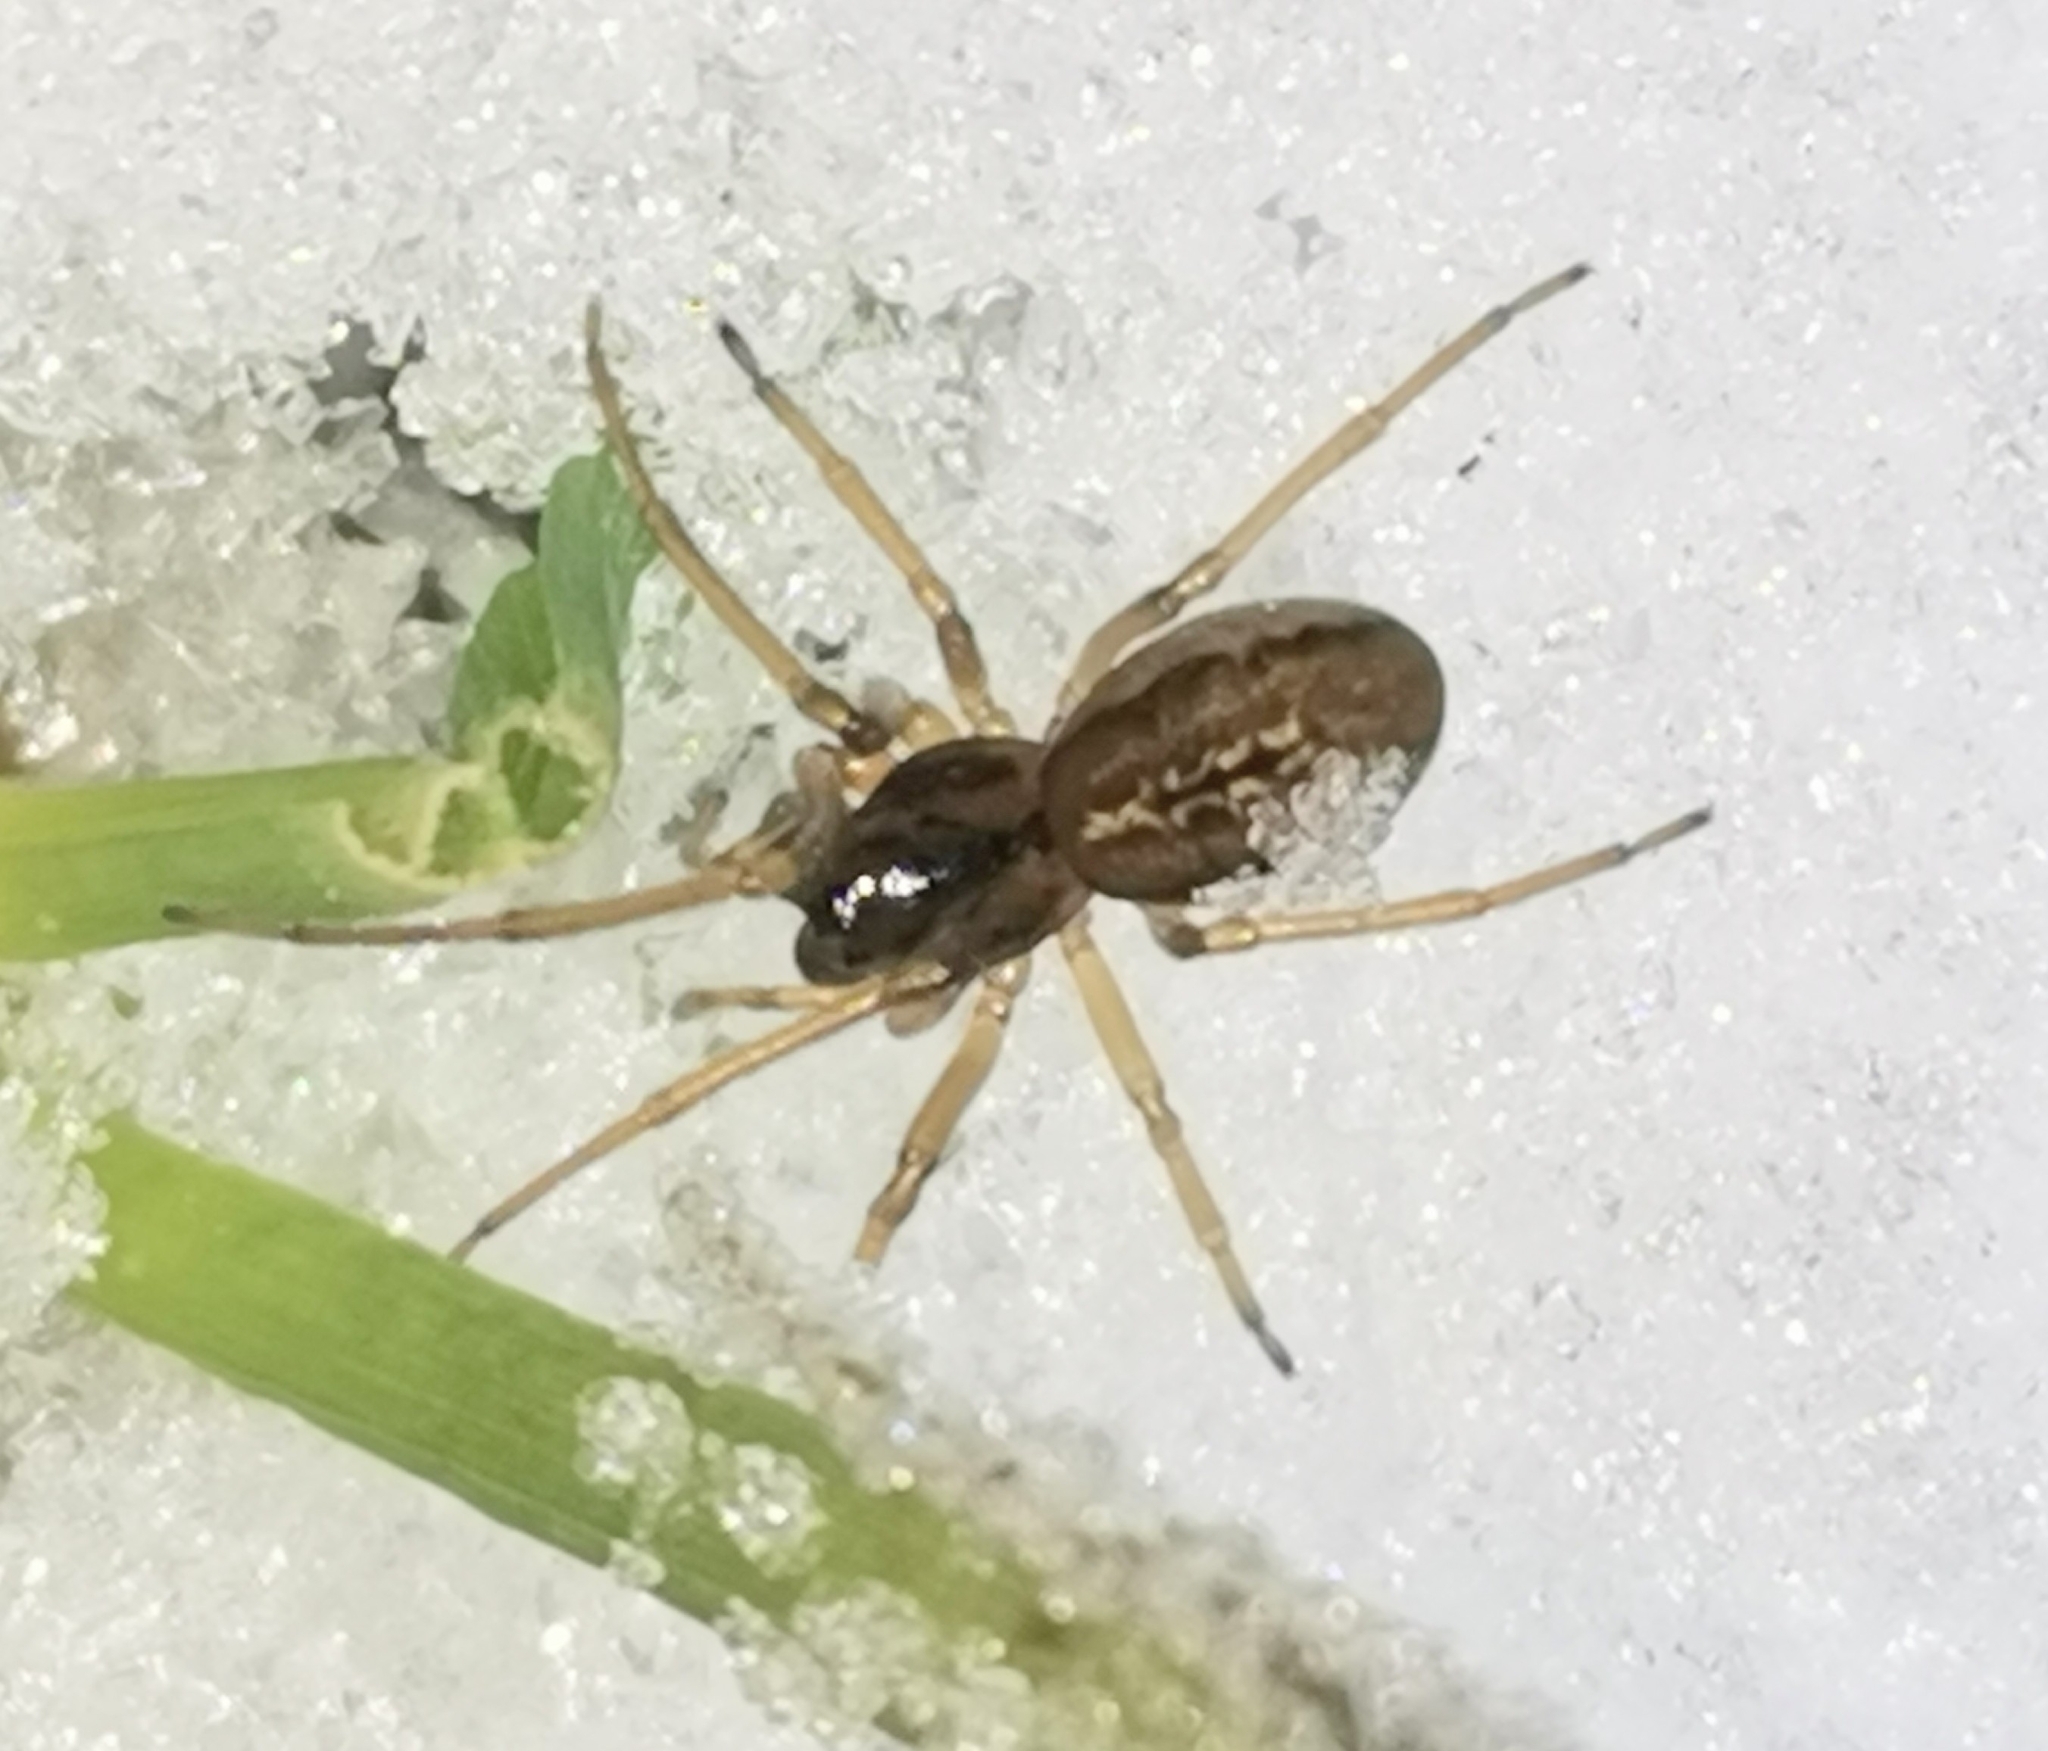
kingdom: Animalia
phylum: Arthropoda
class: Arachnida
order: Araneae
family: Tetragnathidae
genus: Pachygnatha
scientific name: Pachygnatha degeeri
